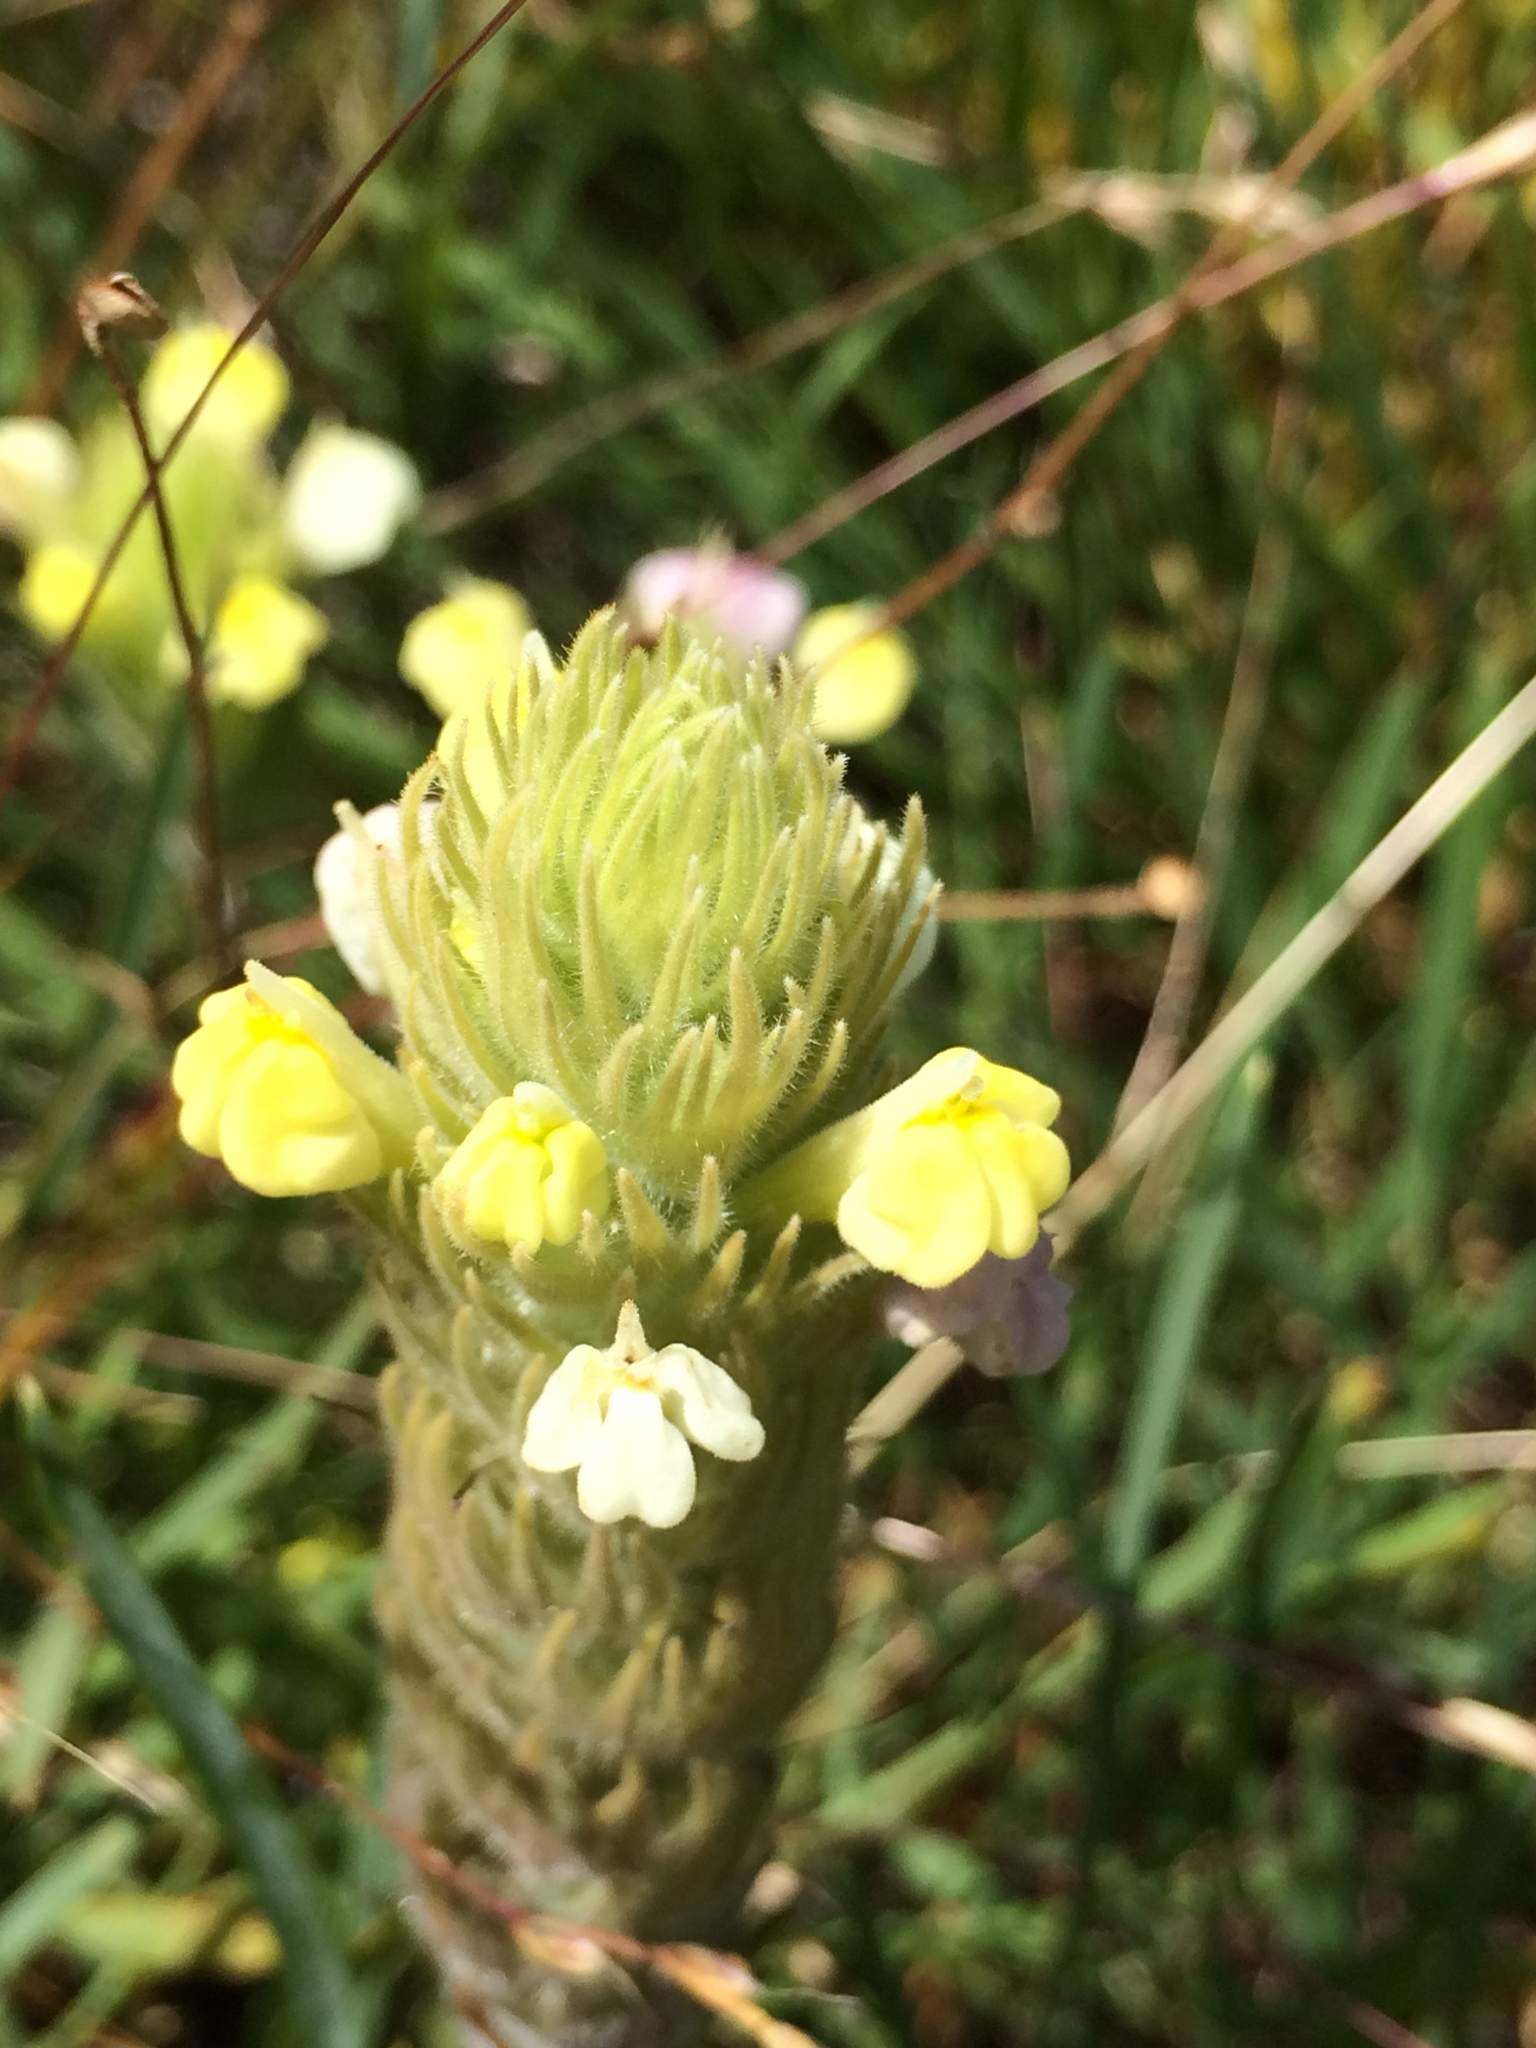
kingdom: Plantae
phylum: Tracheophyta
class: Magnoliopsida
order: Lamiales
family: Orobanchaceae
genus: Castilleja
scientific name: Castilleja rubicundula
